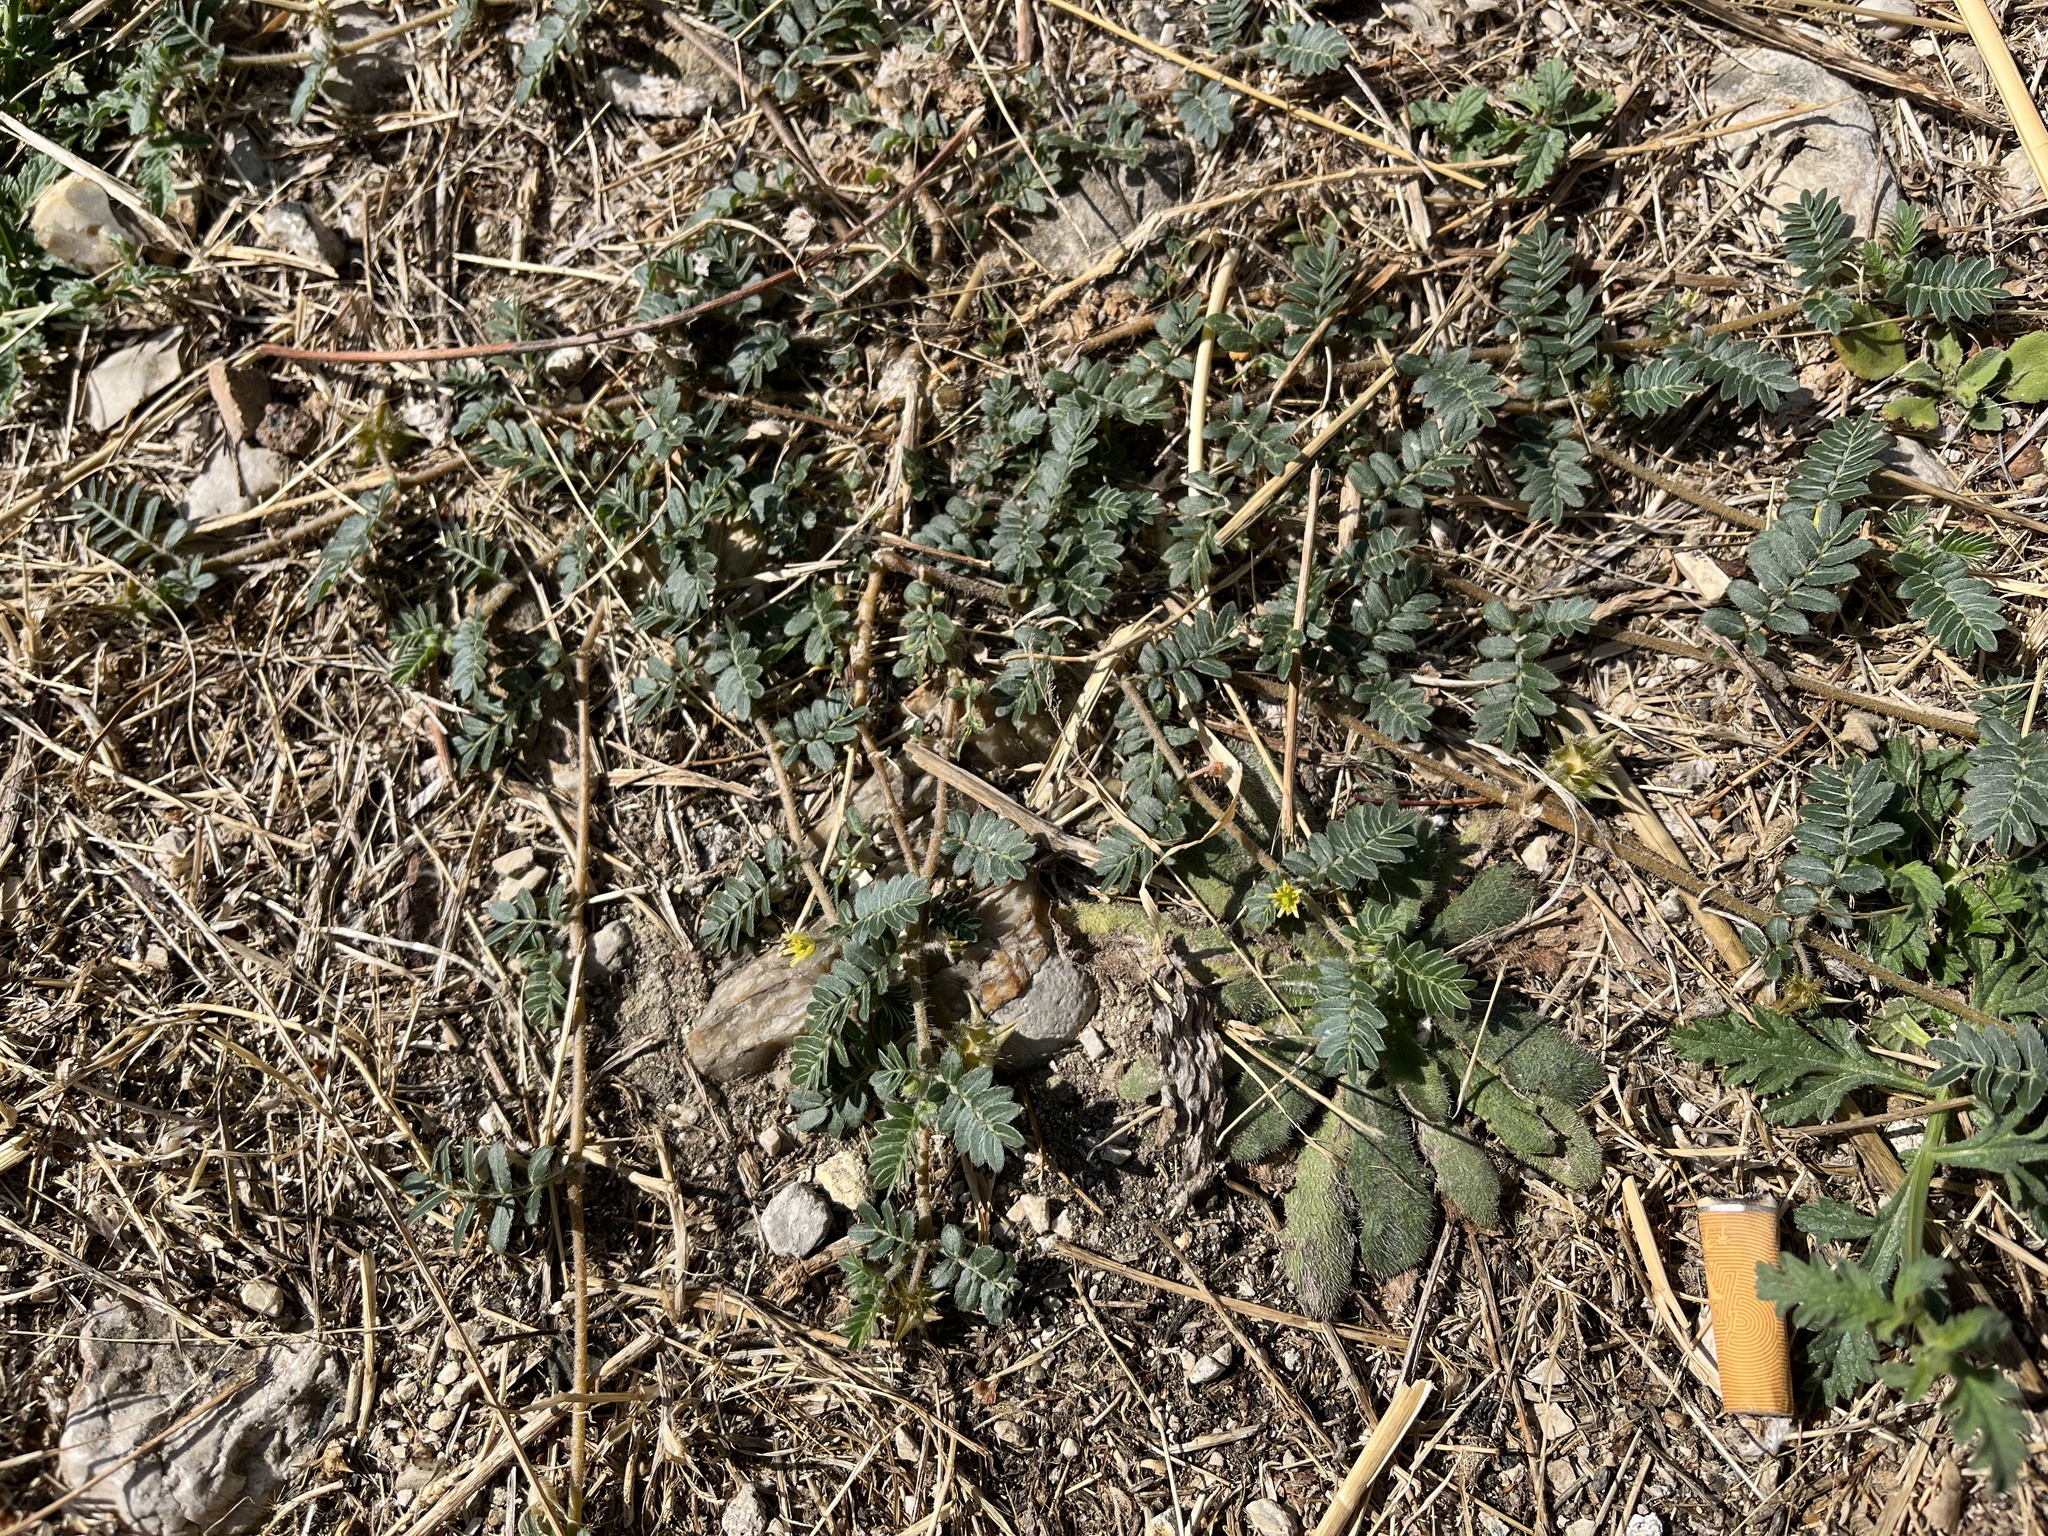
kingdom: Plantae
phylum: Tracheophyta
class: Magnoliopsida
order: Zygophyllales
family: Zygophyllaceae
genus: Tribulus
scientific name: Tribulus terrestris
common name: Puncturevine
